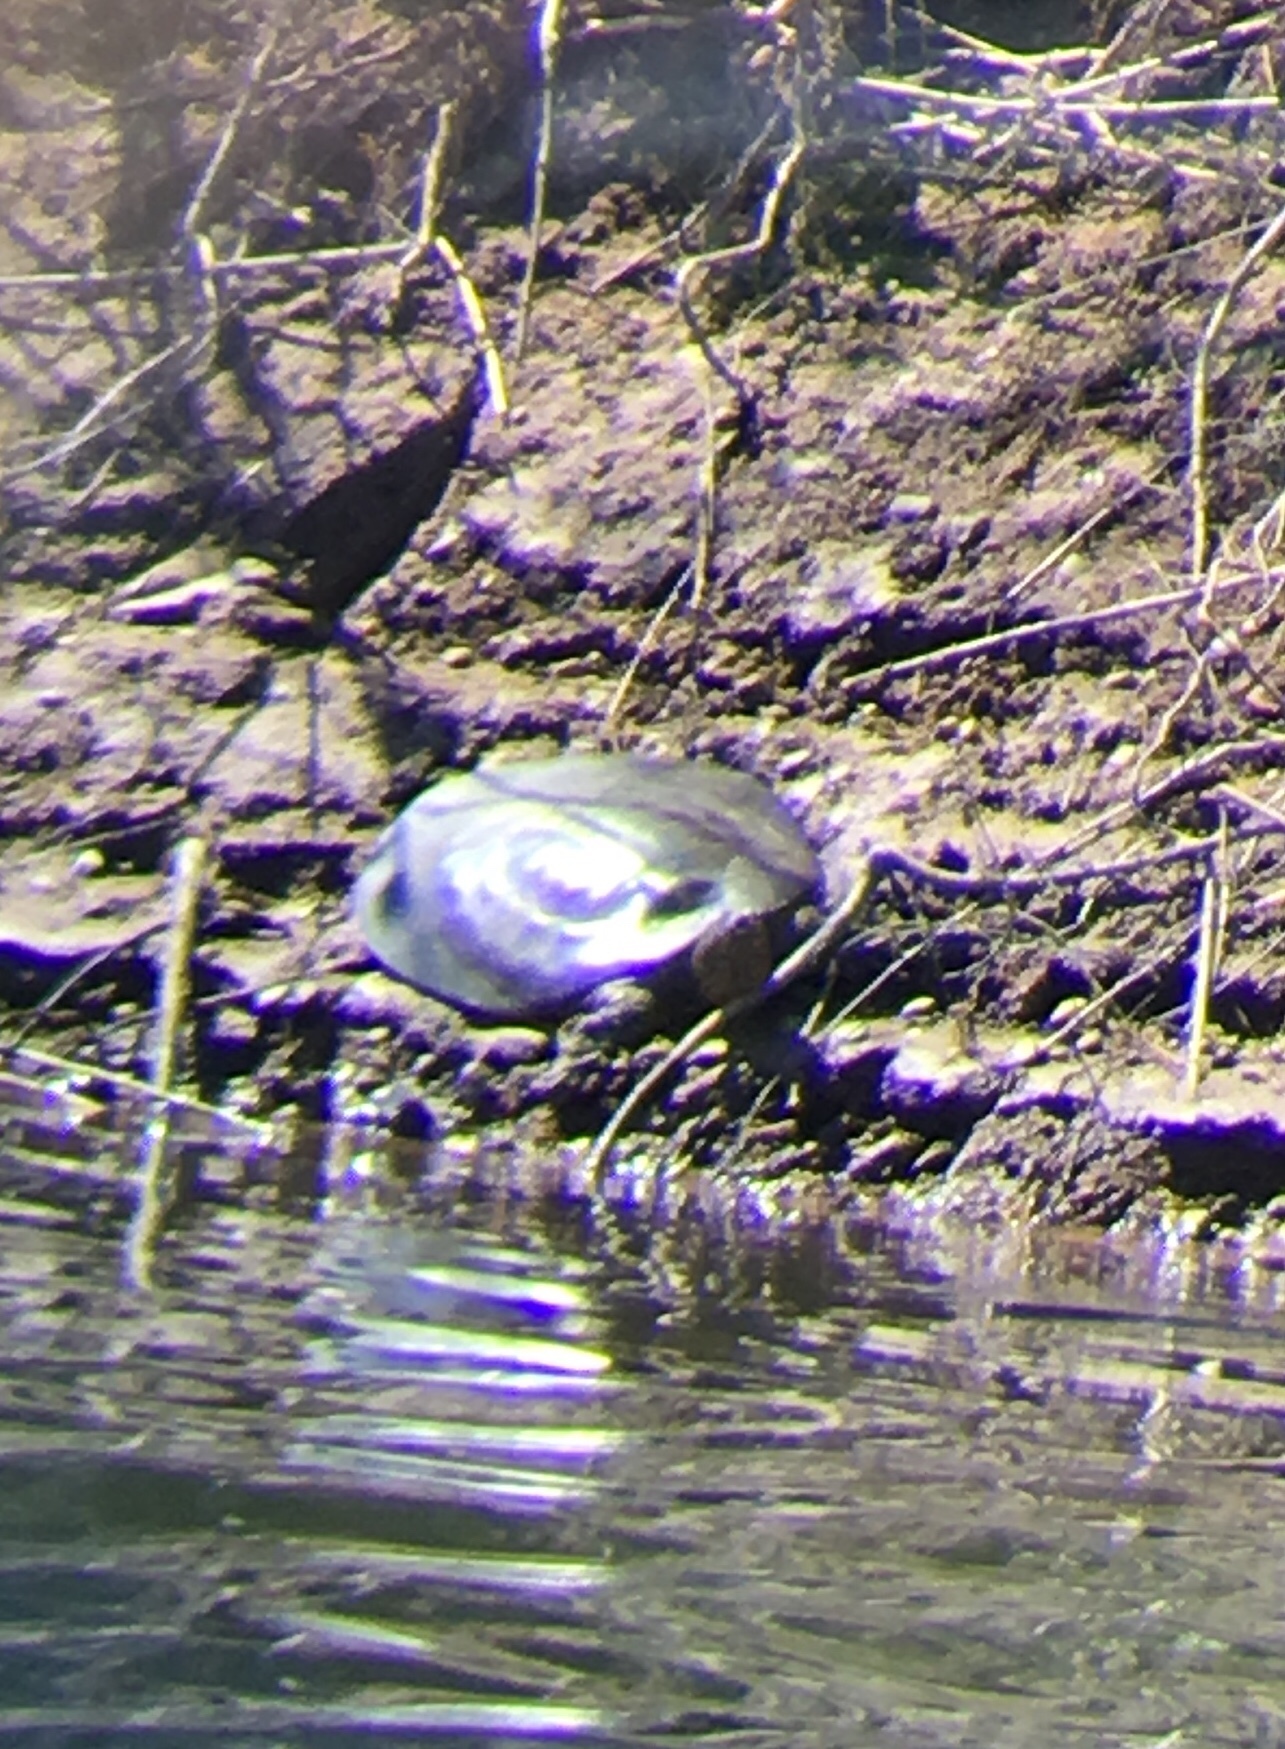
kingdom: Animalia
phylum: Chordata
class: Testudines
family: Trionychidae
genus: Apalone
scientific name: Apalone spinifera
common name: Spiny softshell turtle
